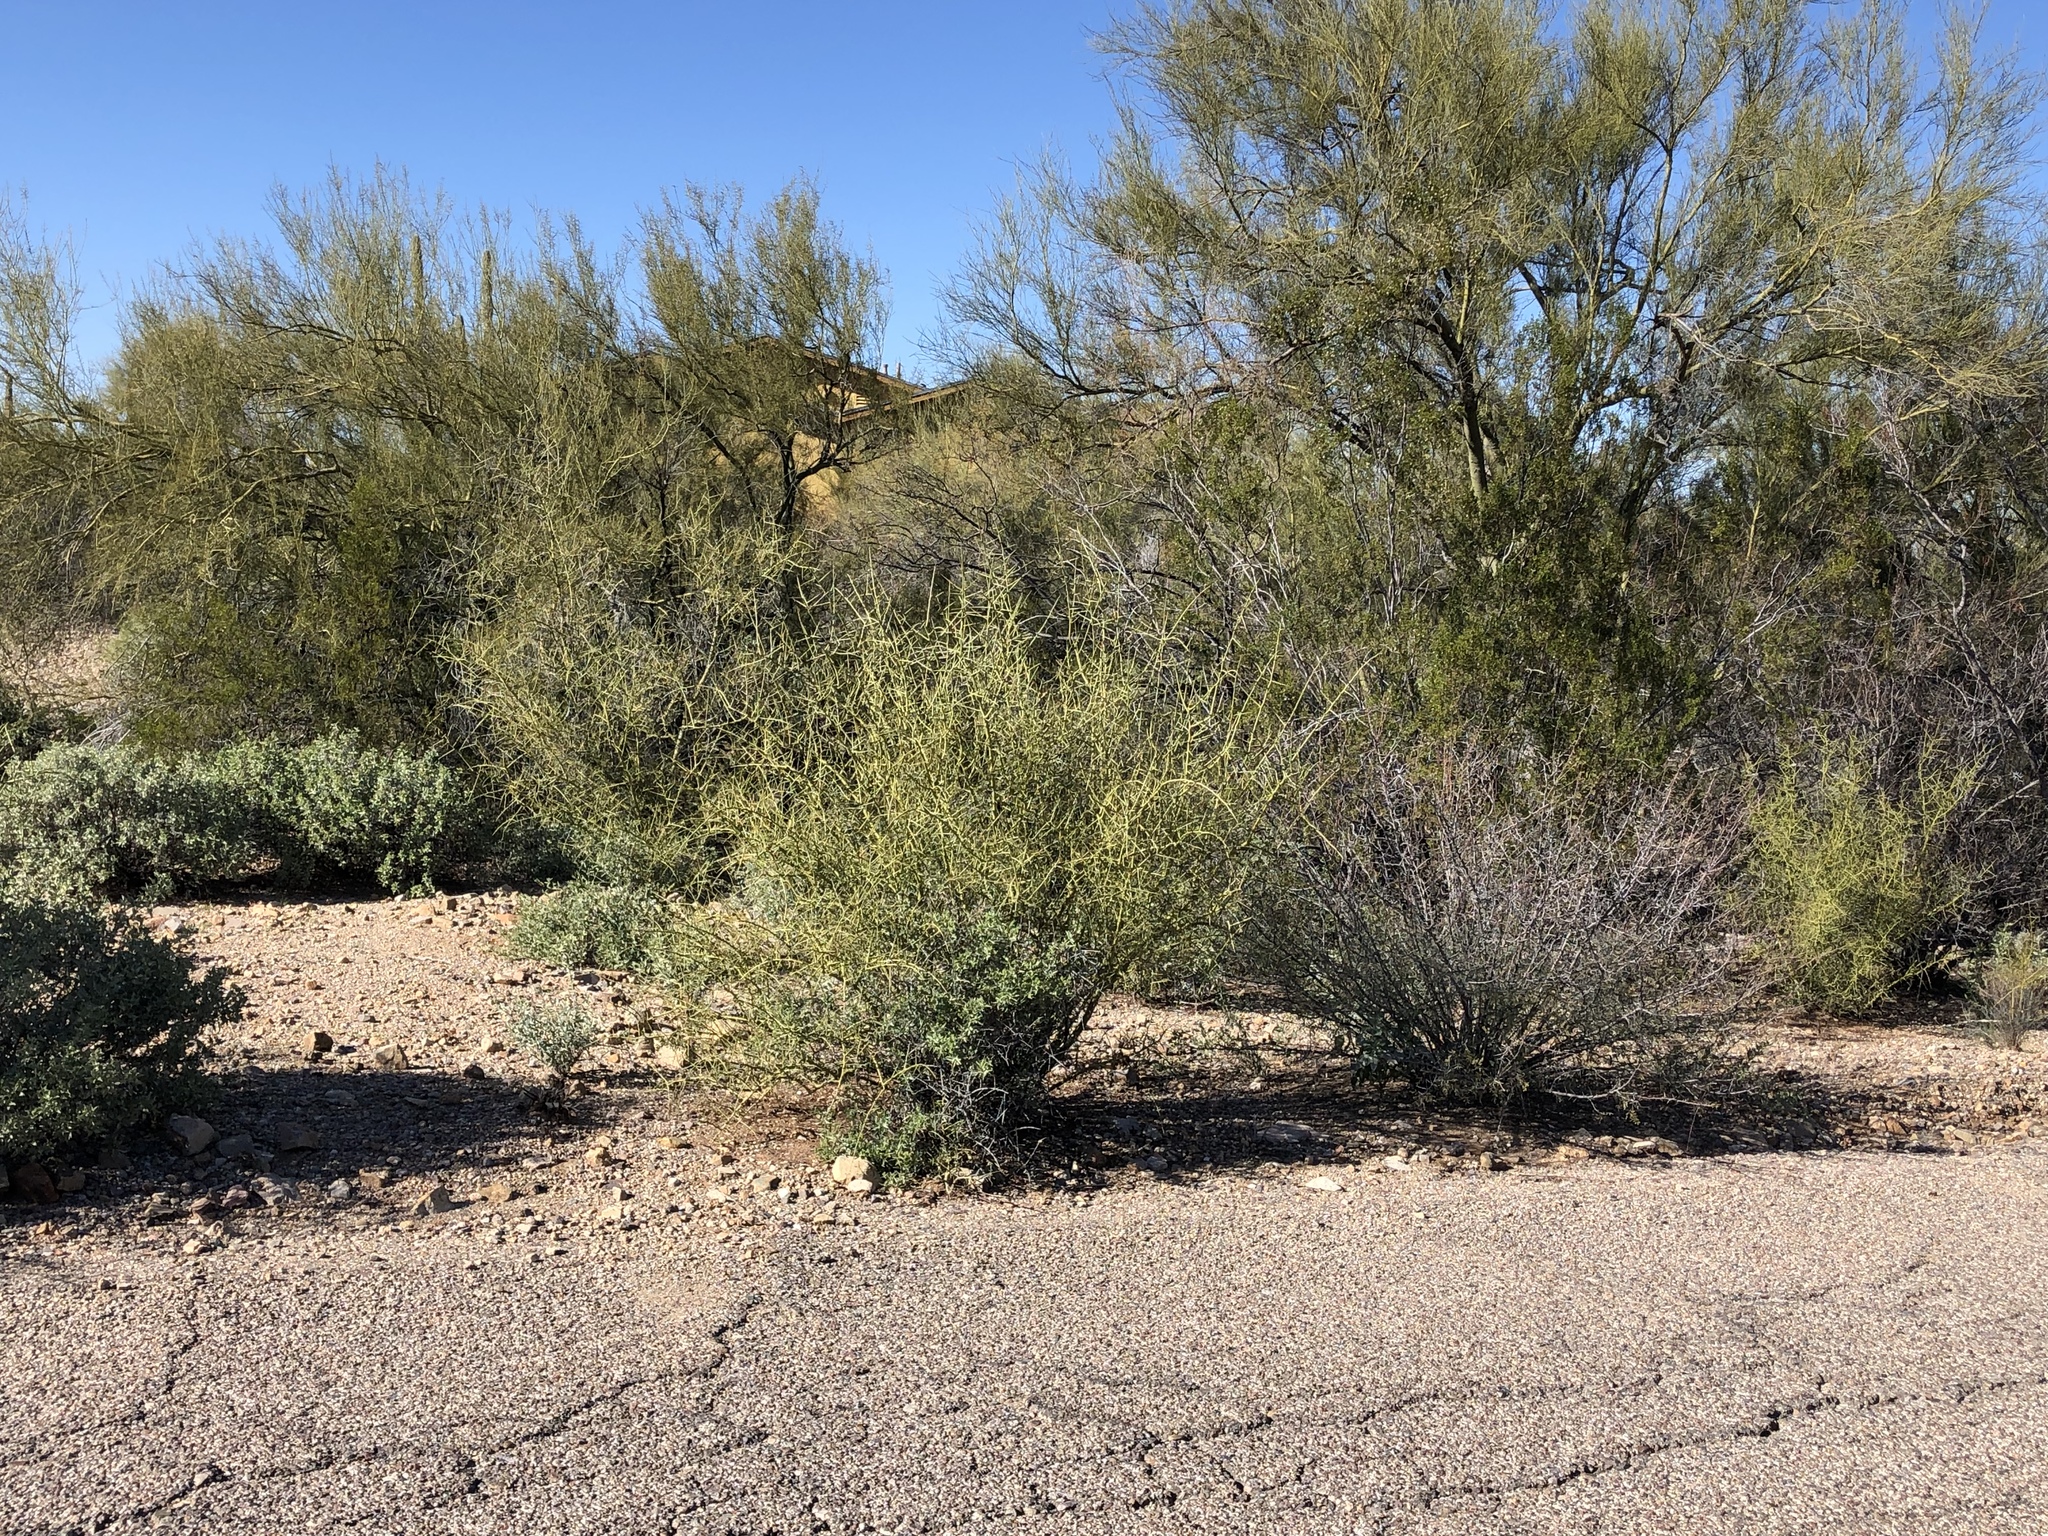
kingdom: Plantae
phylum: Tracheophyta
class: Magnoliopsida
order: Fabales
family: Fabaceae
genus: Parkinsonia
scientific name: Parkinsonia microphylla
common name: Yellow paloverde
